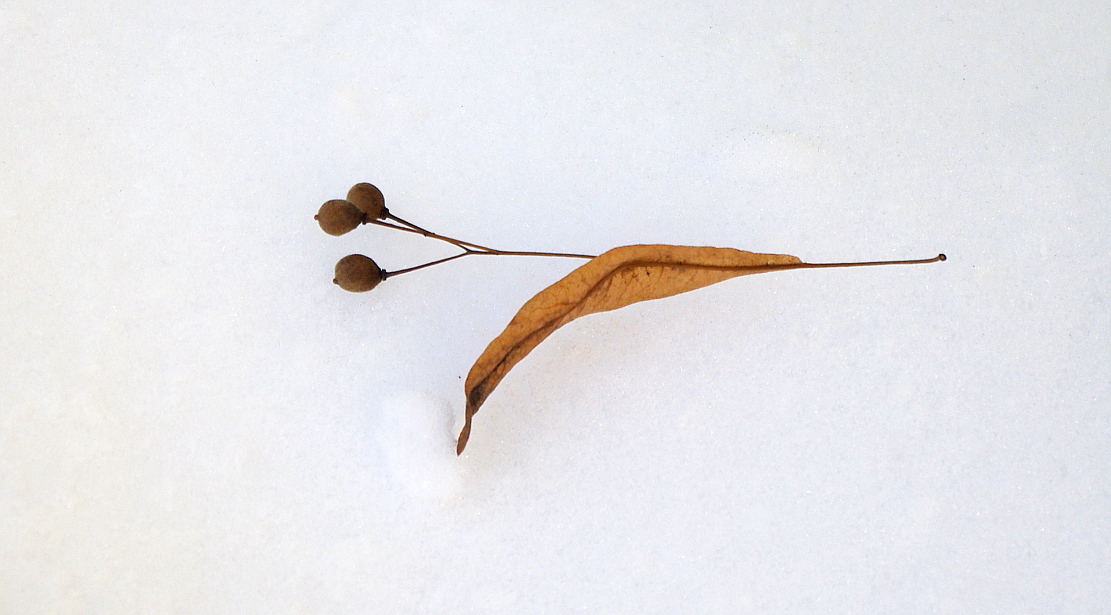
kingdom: Plantae
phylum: Tracheophyta
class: Magnoliopsida
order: Malvales
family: Malvaceae
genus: Tilia
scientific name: Tilia cordata
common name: Small-leaved lime
